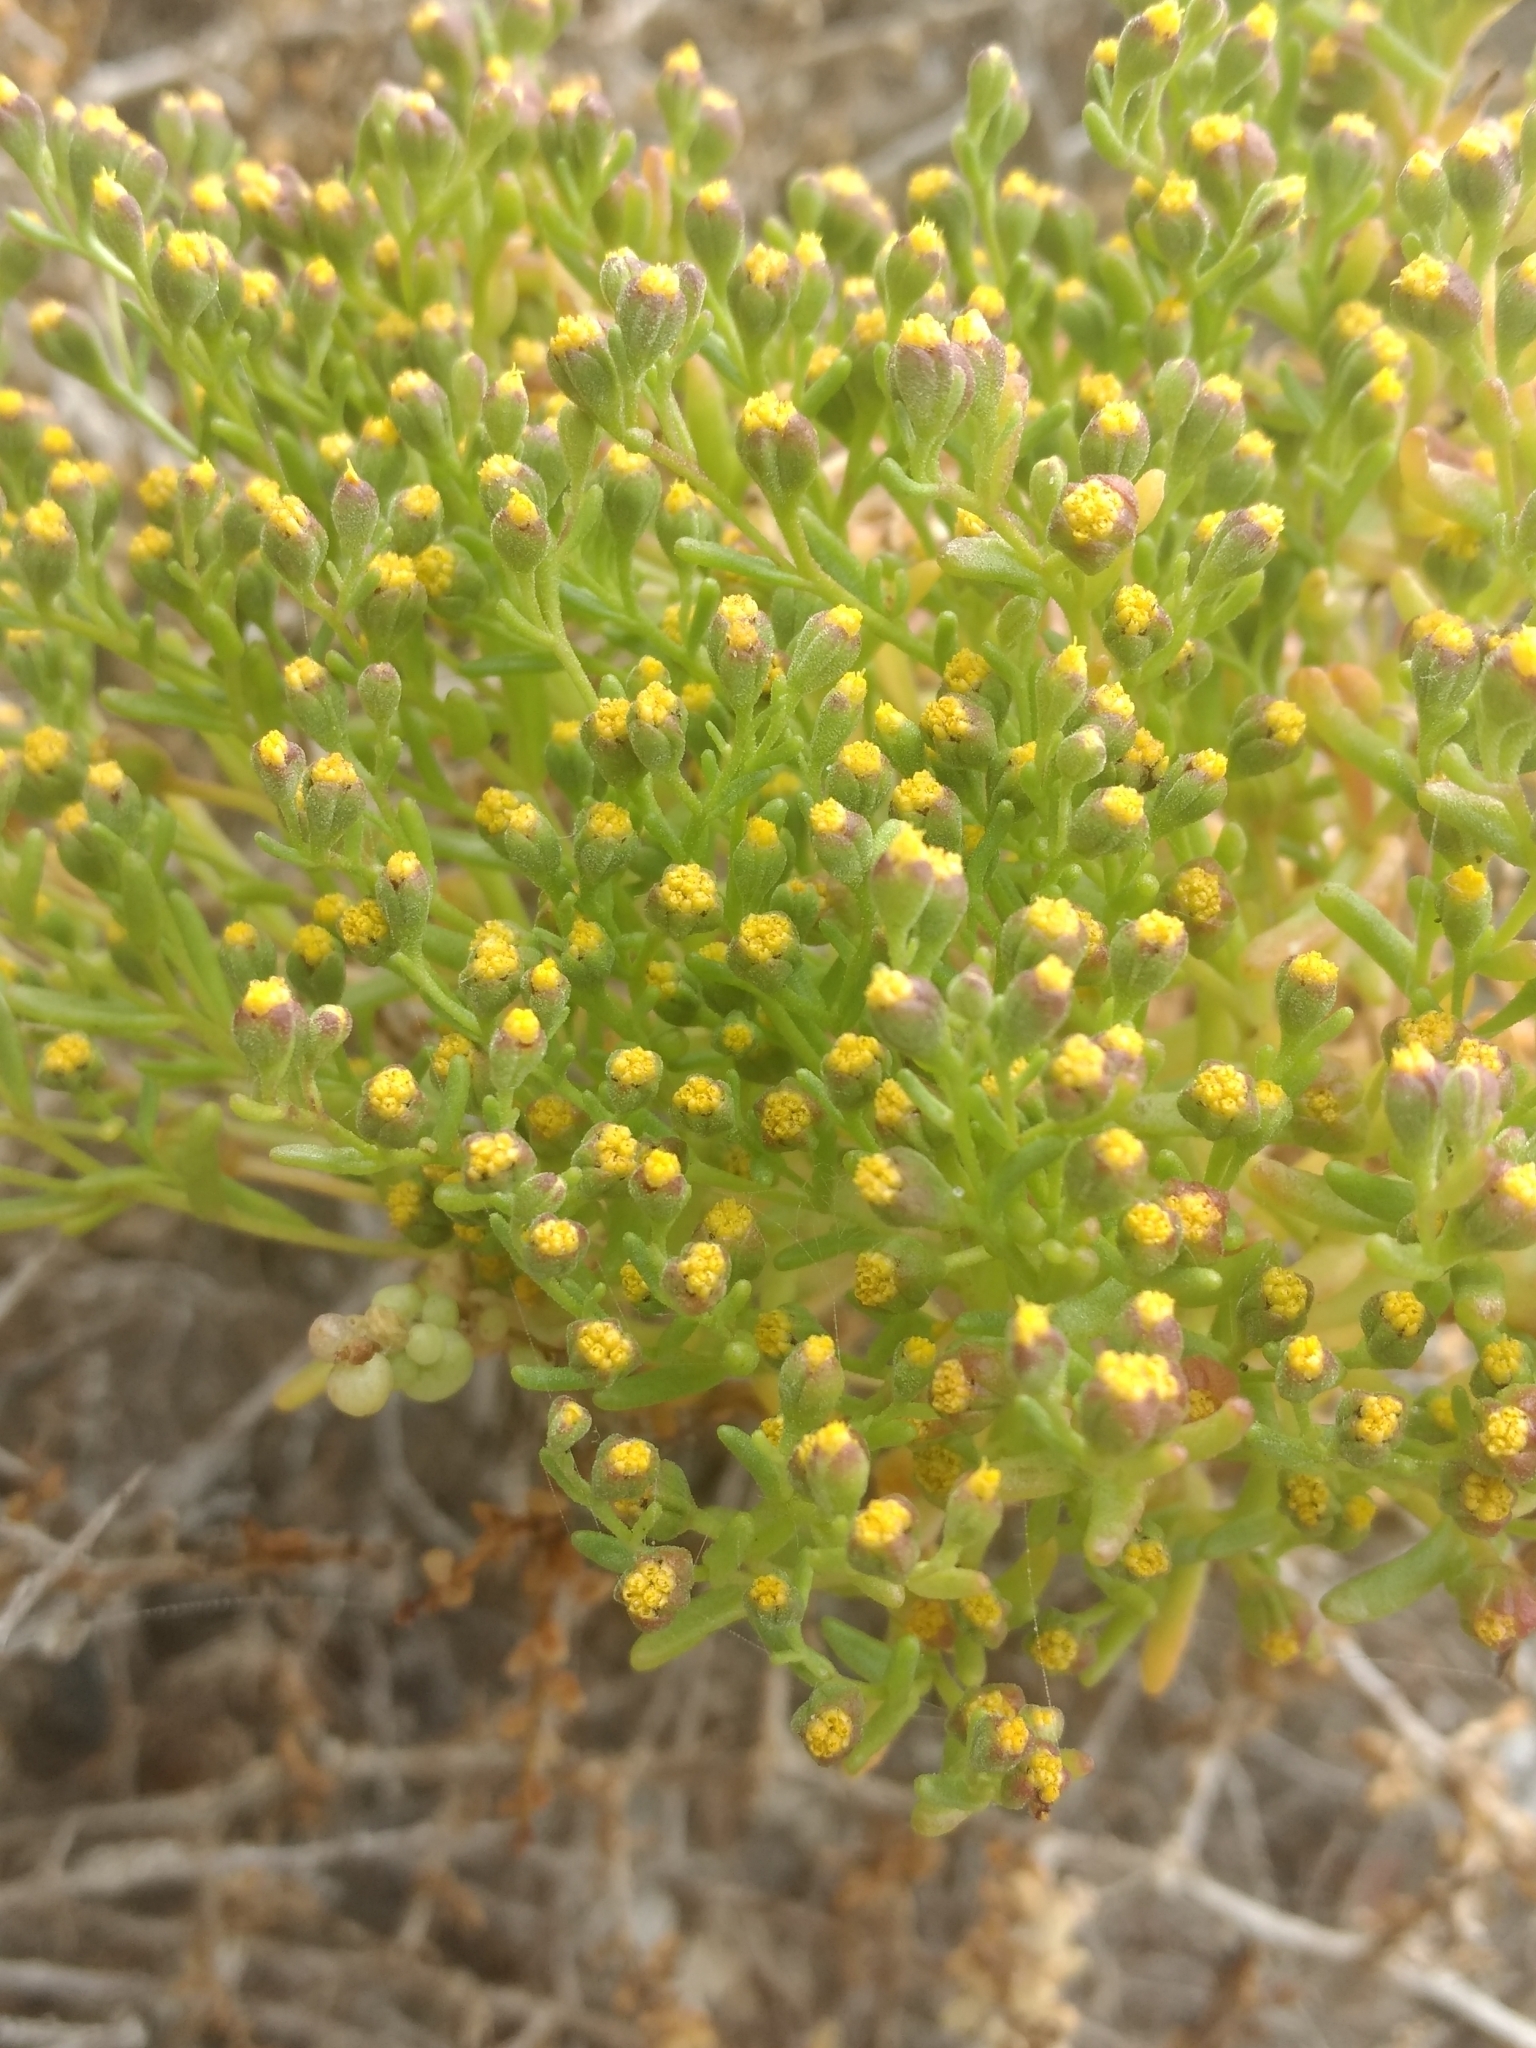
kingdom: Plantae
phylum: Tracheophyta
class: Magnoliopsida
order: Asterales
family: Asteraceae
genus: Amblyopappus
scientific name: Amblyopappus pusillus
